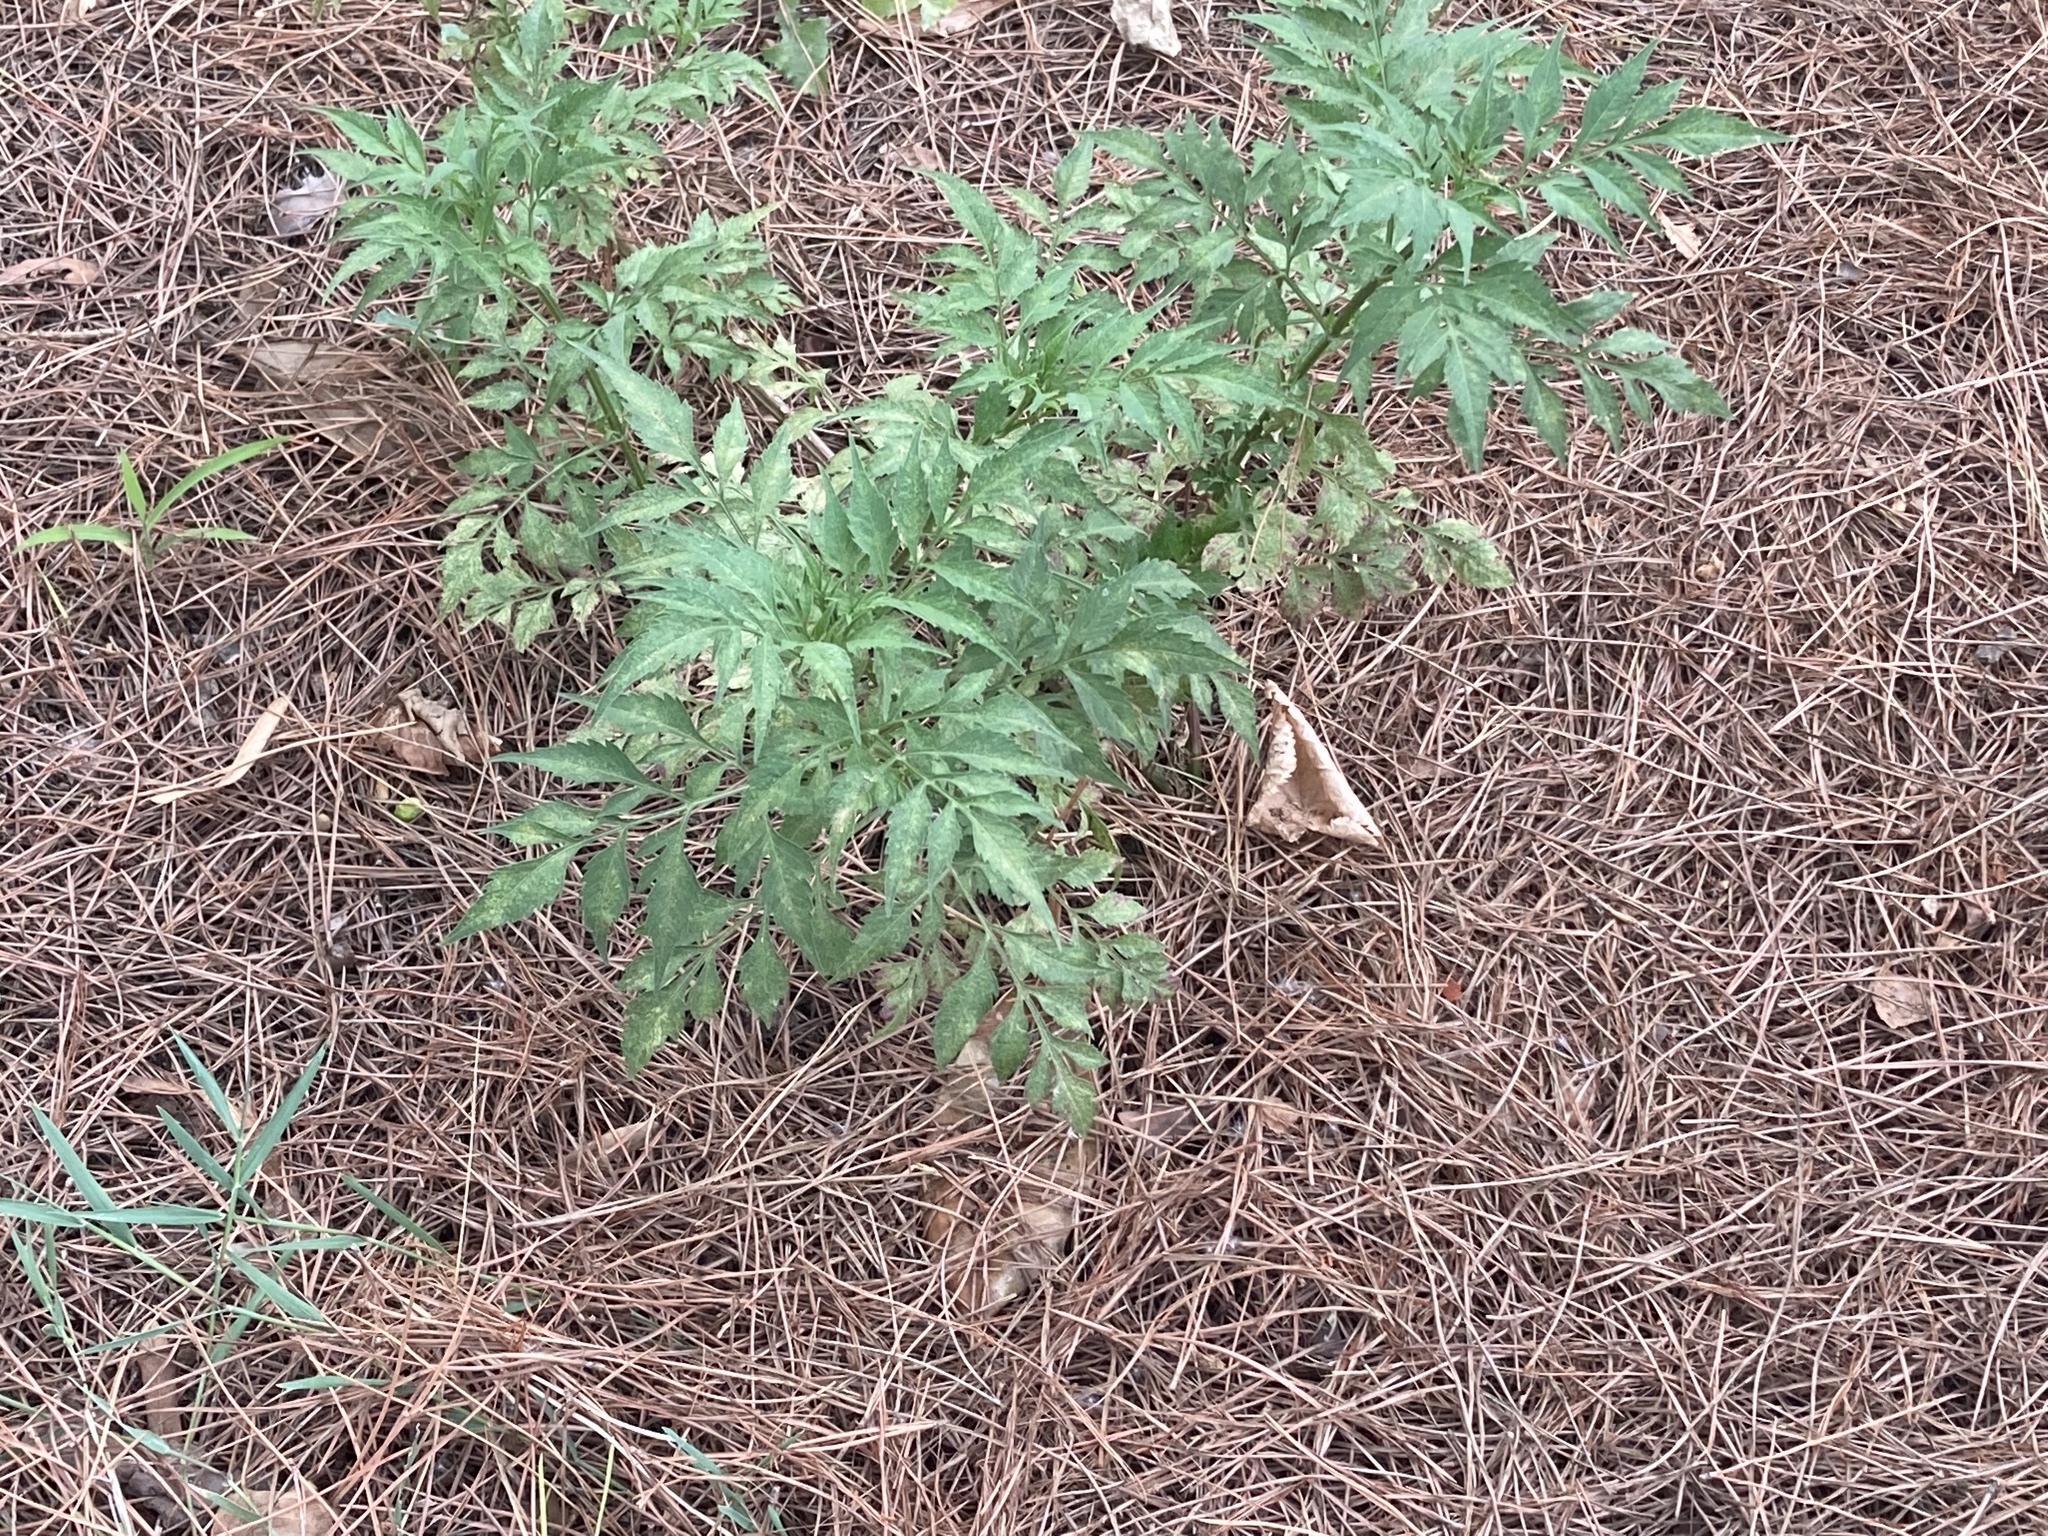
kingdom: Plantae
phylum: Tracheophyta
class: Magnoliopsida
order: Asterales
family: Asteraceae
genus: Bidens
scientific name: Bidens subalternans
